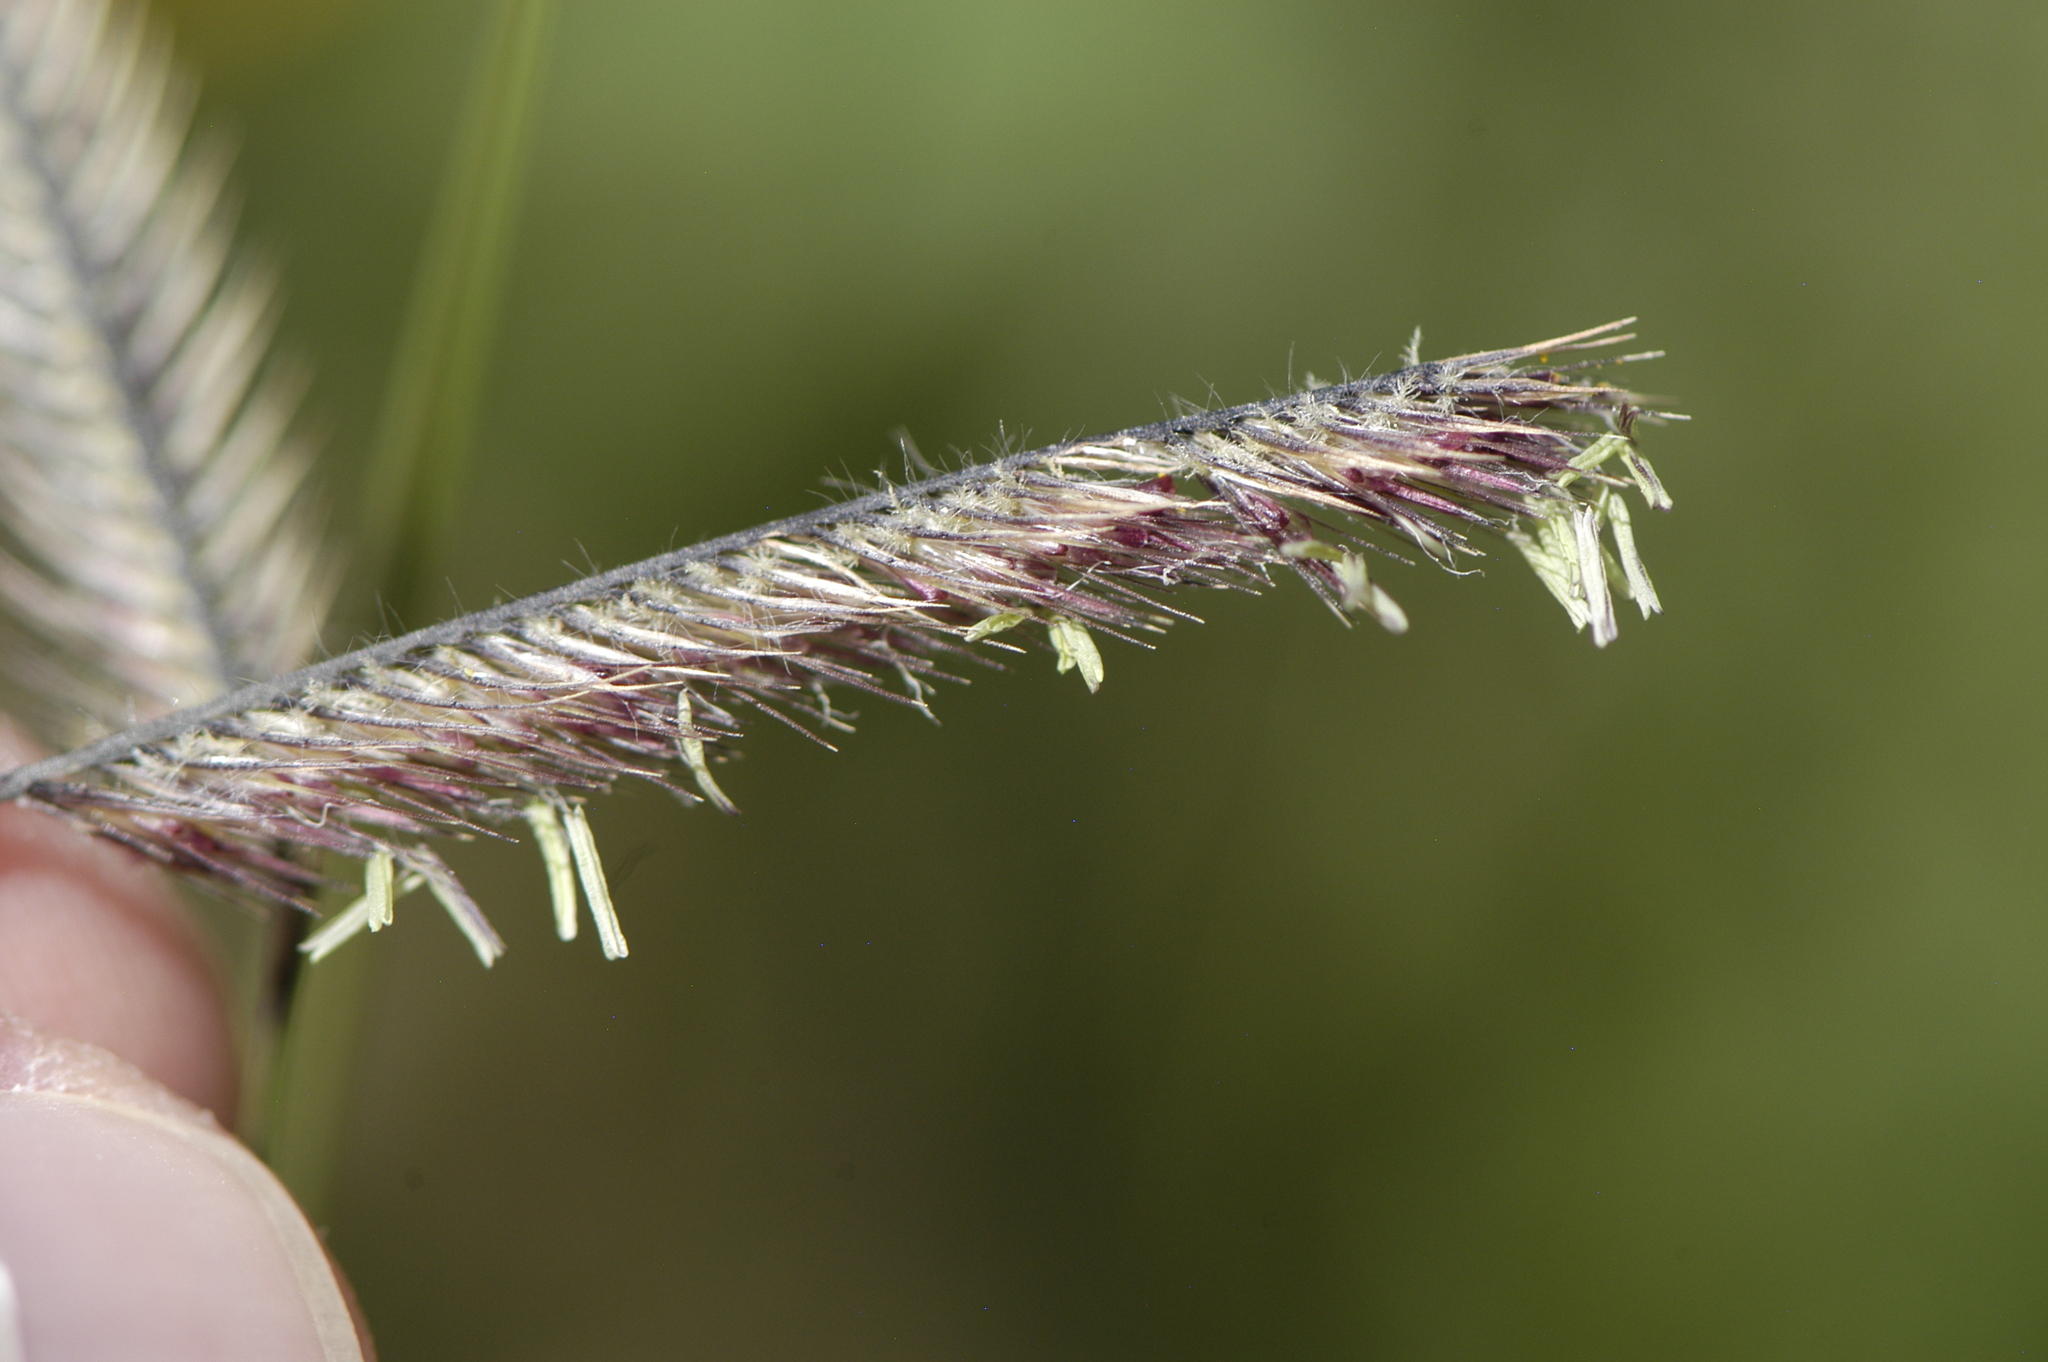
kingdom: Plantae
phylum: Tracheophyta
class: Liliopsida
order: Poales
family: Poaceae
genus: Bouteloua
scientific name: Bouteloua gracilis
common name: Blue grama
